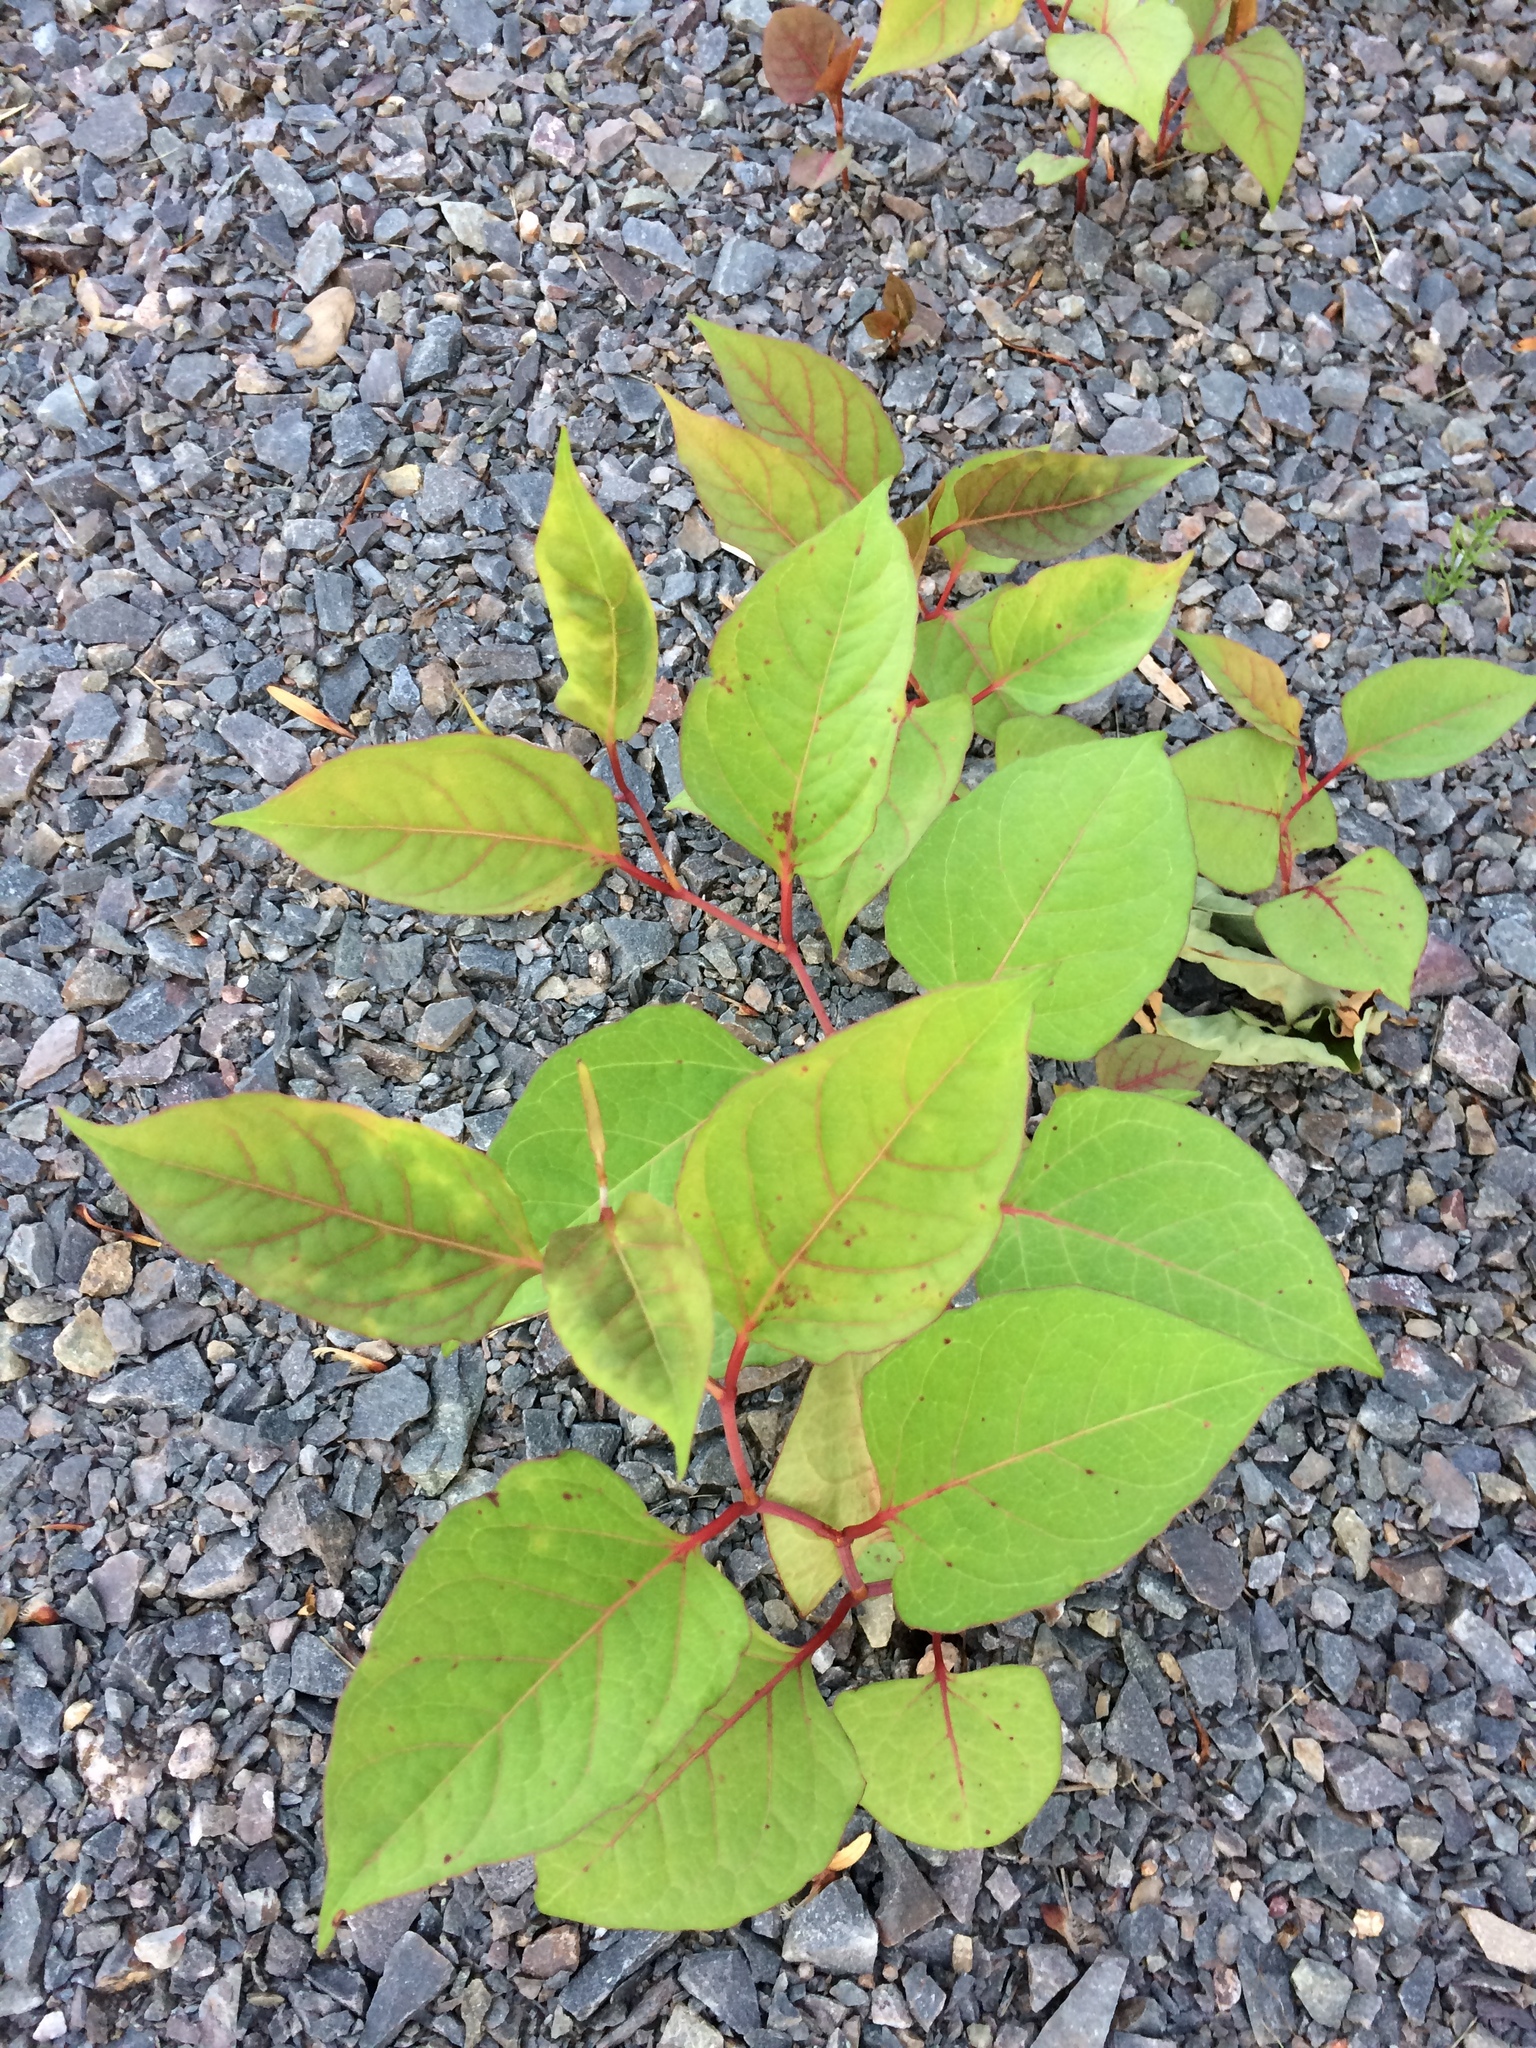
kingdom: Plantae
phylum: Tracheophyta
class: Magnoliopsida
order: Caryophyllales
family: Polygonaceae
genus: Reynoutria
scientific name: Reynoutria japonica
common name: Japanese knotweed
